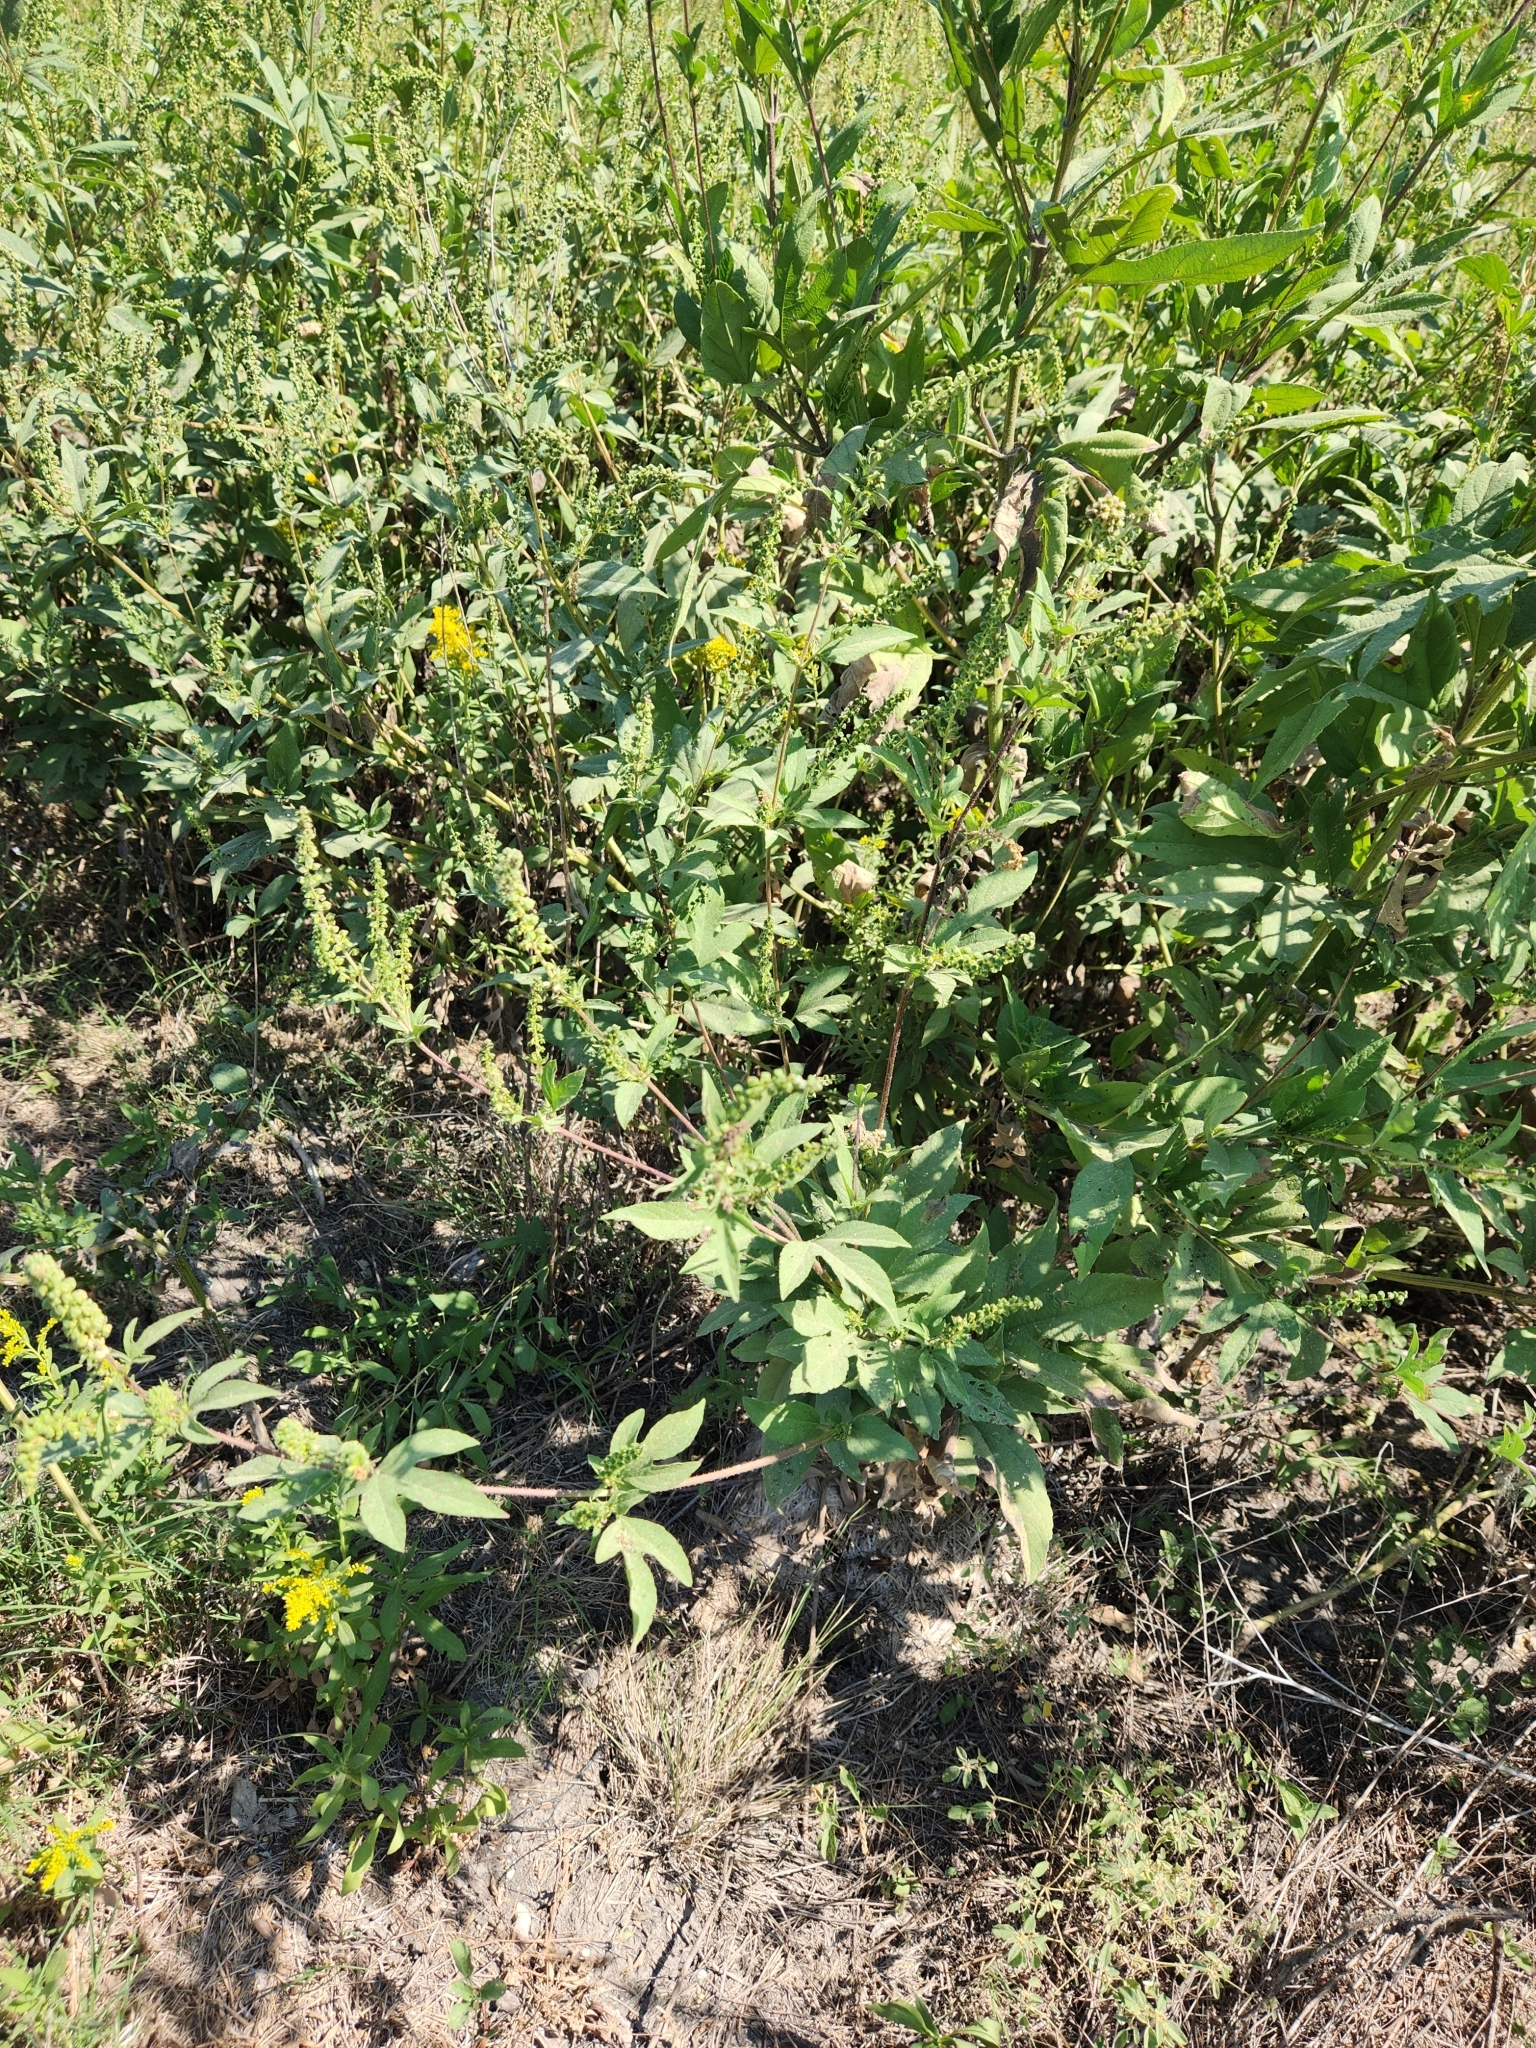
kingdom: Plantae
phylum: Tracheophyta
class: Magnoliopsida
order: Asterales
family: Asteraceae
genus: Ambrosia
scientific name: Ambrosia trifida
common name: Giant ragweed
